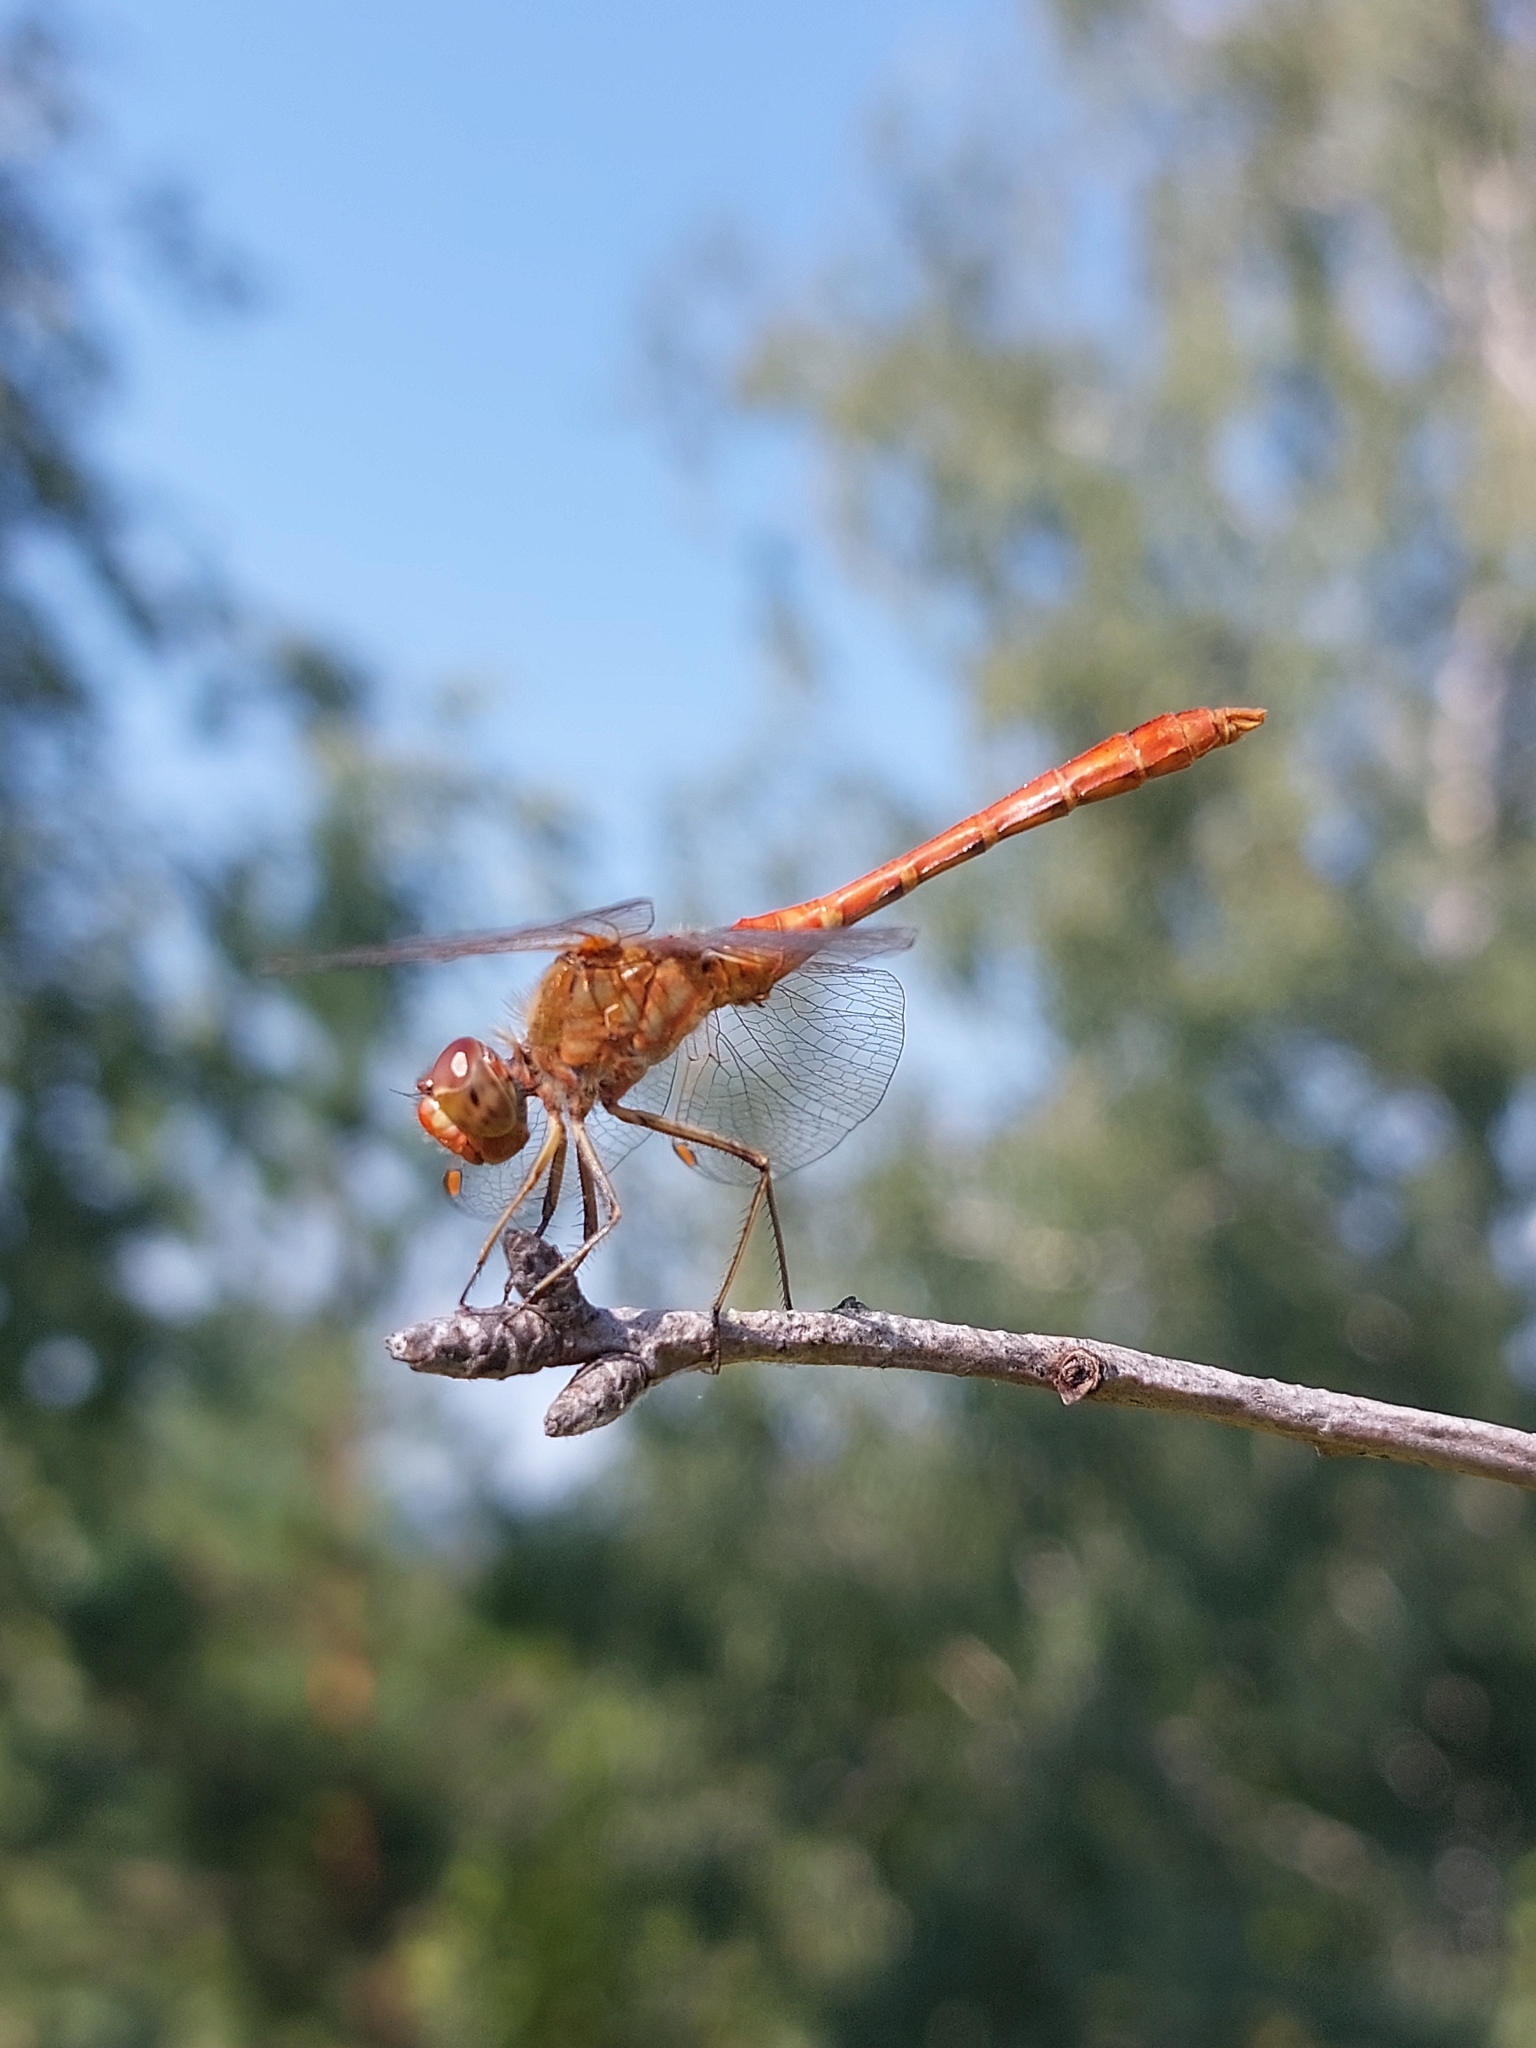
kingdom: Animalia
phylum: Arthropoda
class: Insecta
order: Odonata
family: Libellulidae
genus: Sympetrum
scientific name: Sympetrum meridionale
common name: Southern darter
